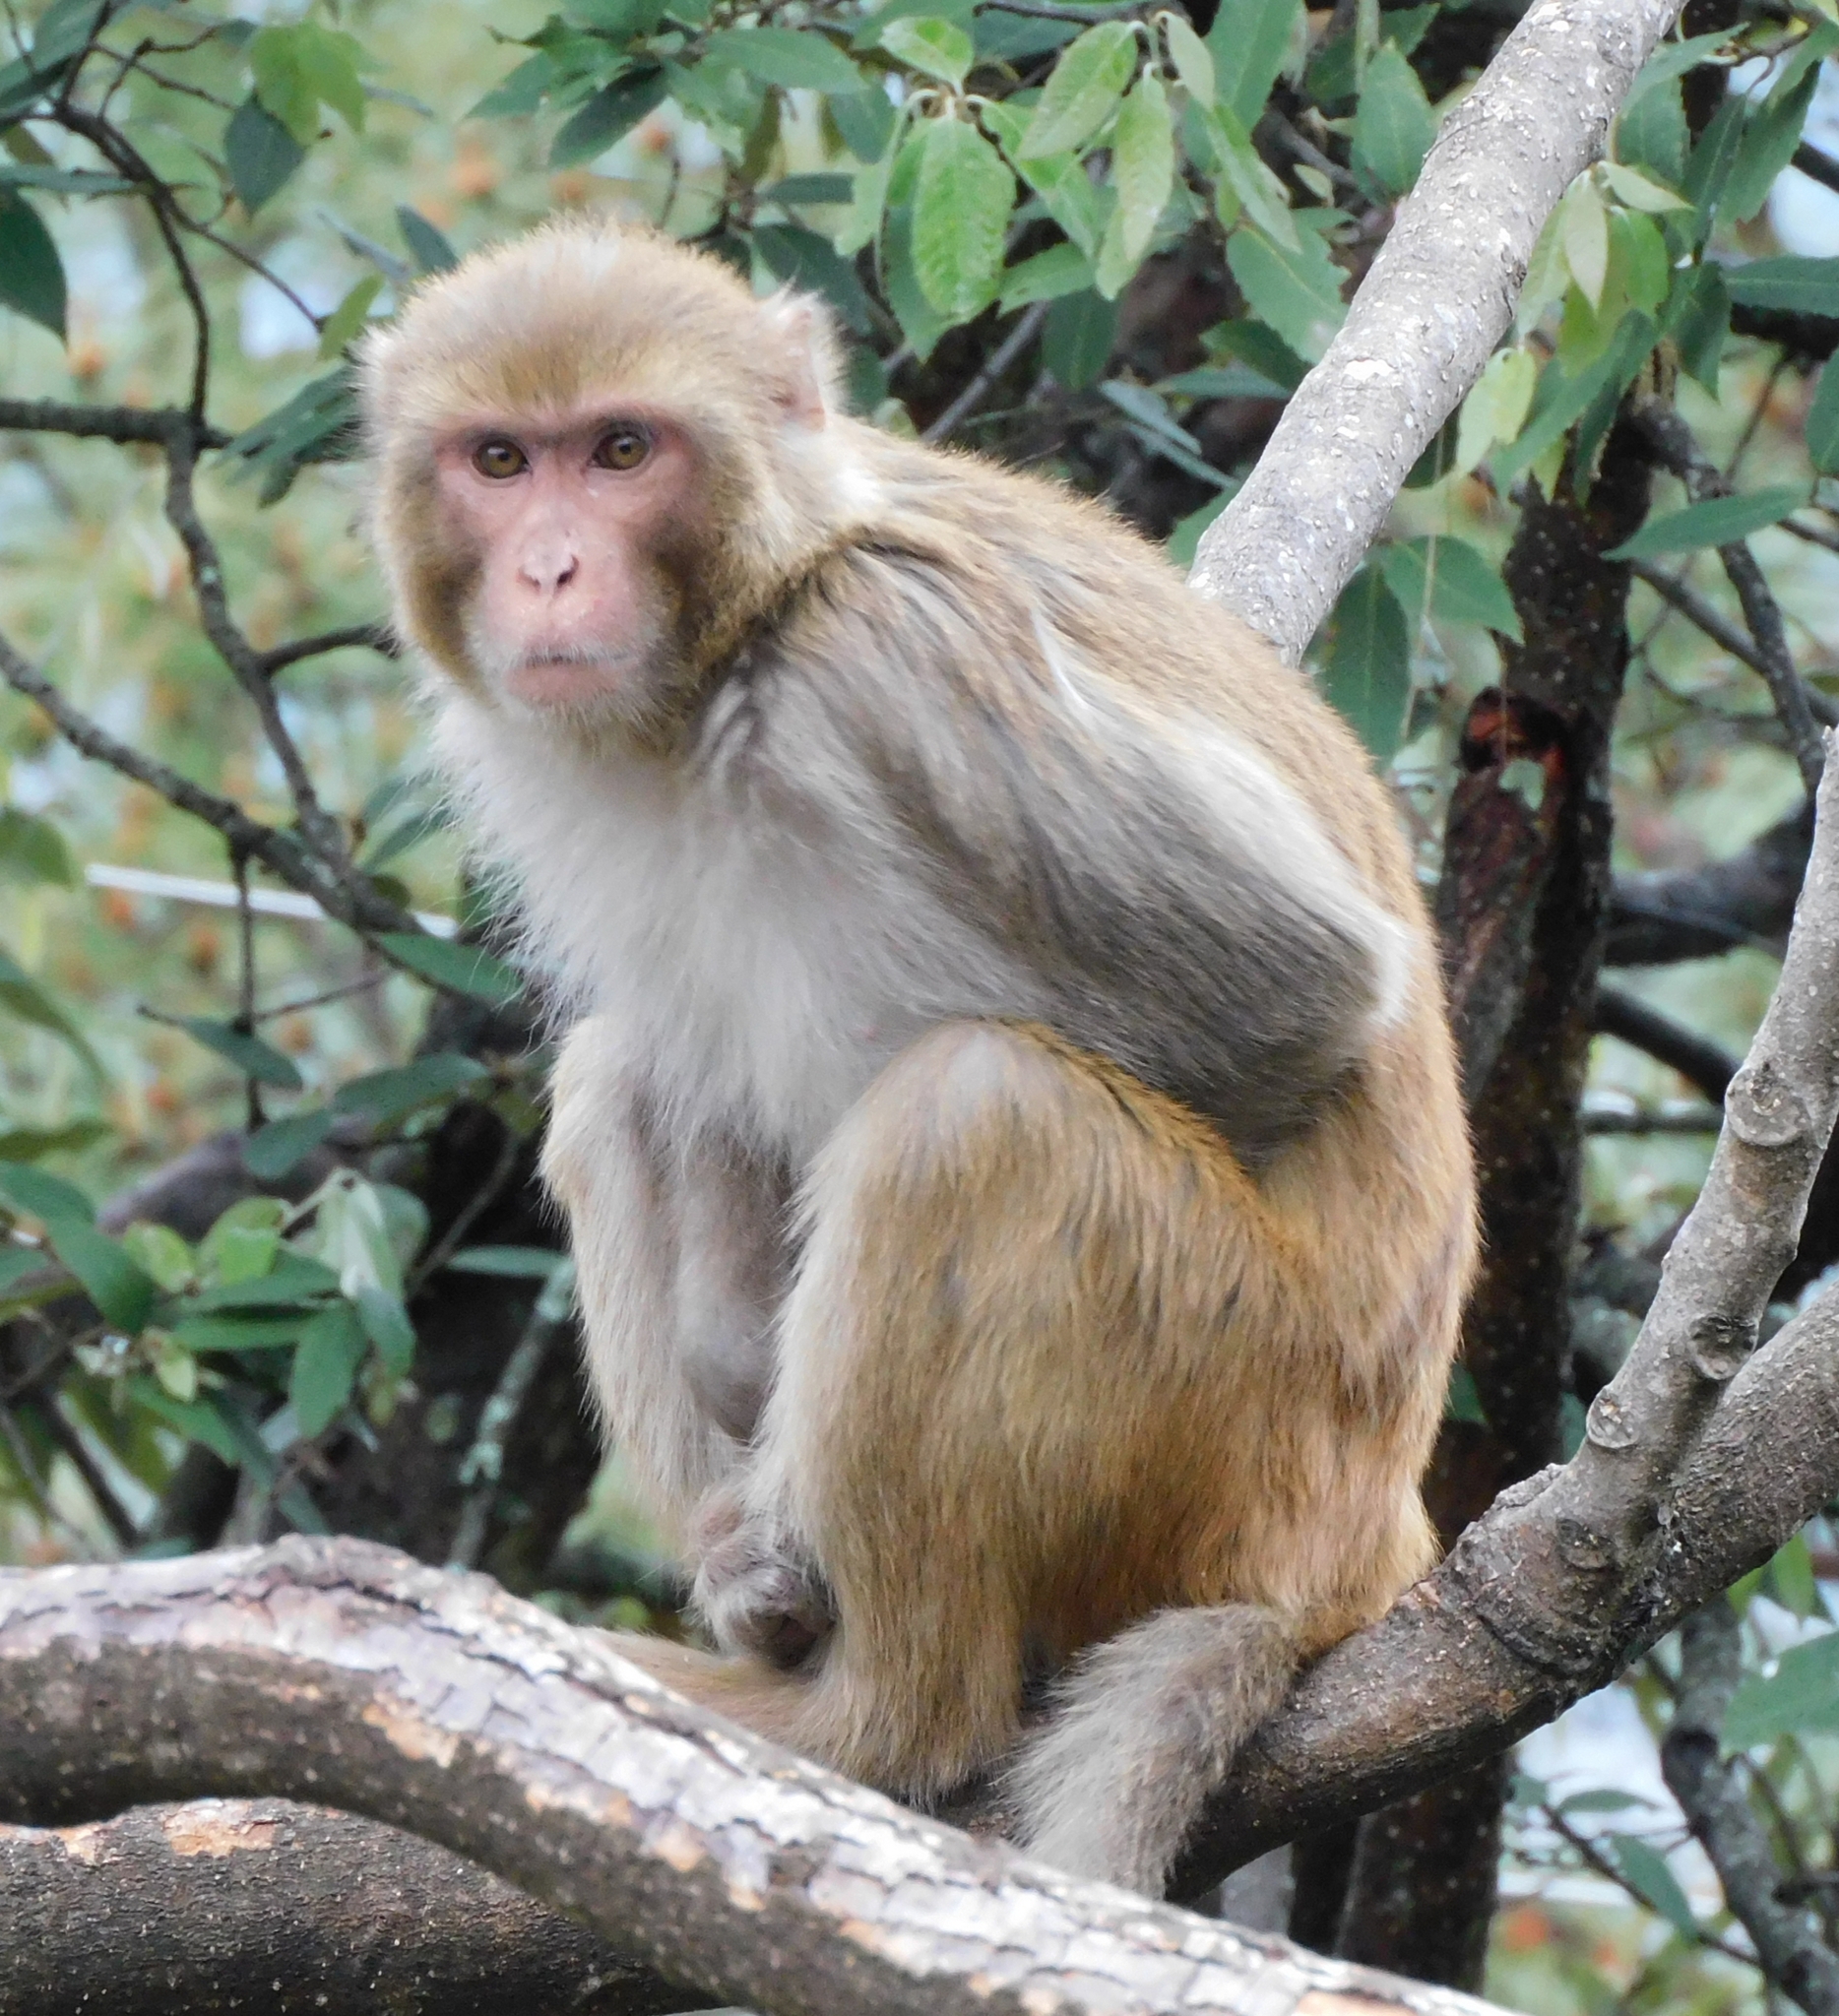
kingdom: Animalia
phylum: Chordata
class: Mammalia
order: Primates
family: Cercopithecidae
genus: Macaca
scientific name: Macaca mulatta
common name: Rhesus monkey
